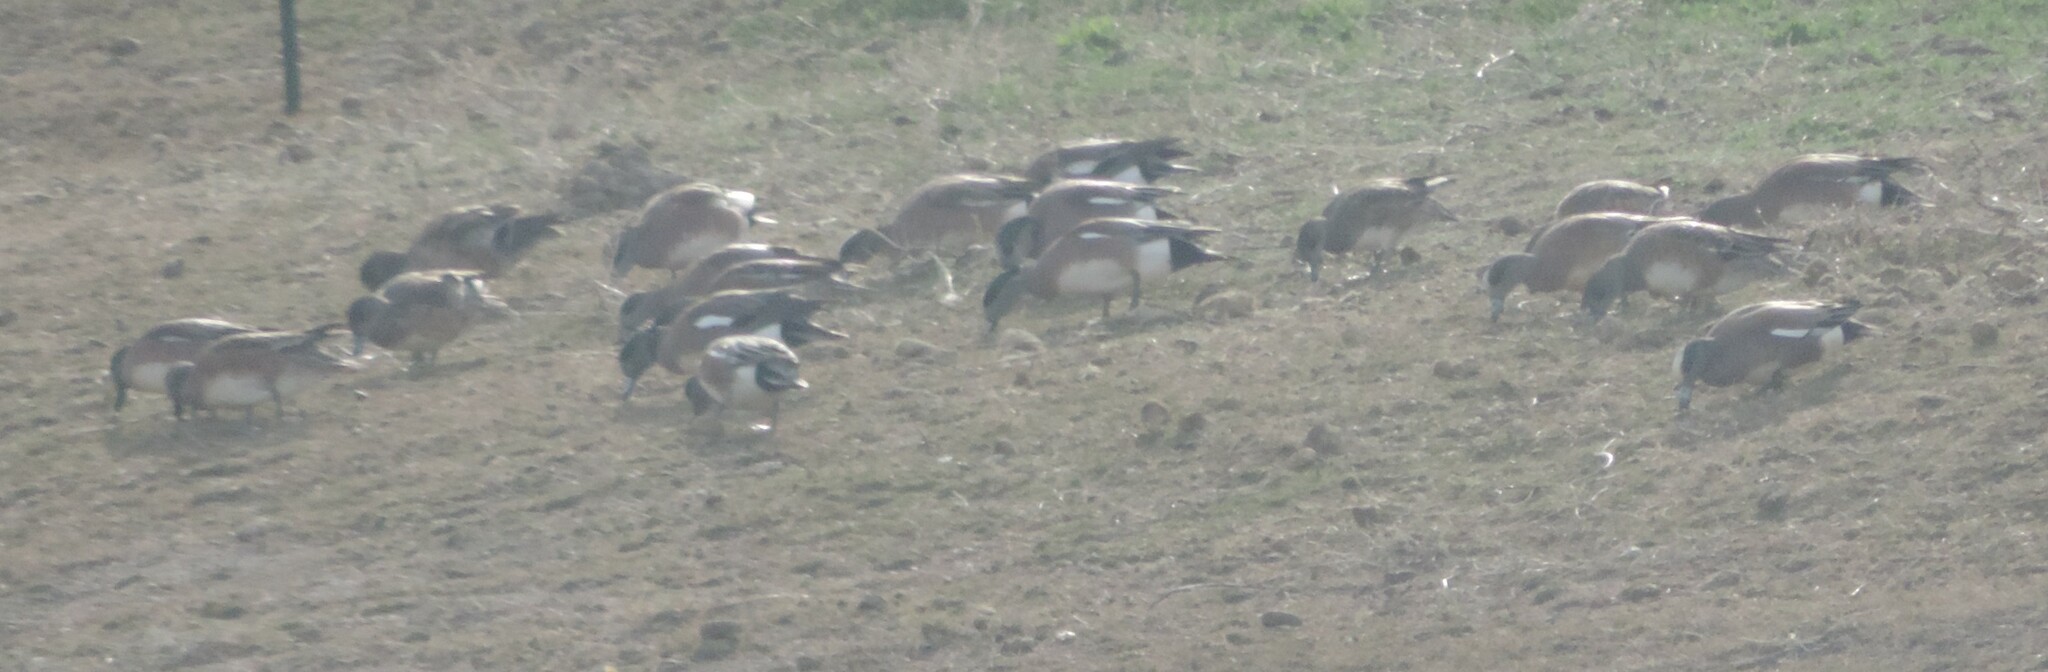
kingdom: Animalia
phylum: Chordata
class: Aves
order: Anseriformes
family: Anatidae
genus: Mareca
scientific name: Mareca americana
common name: American wigeon
